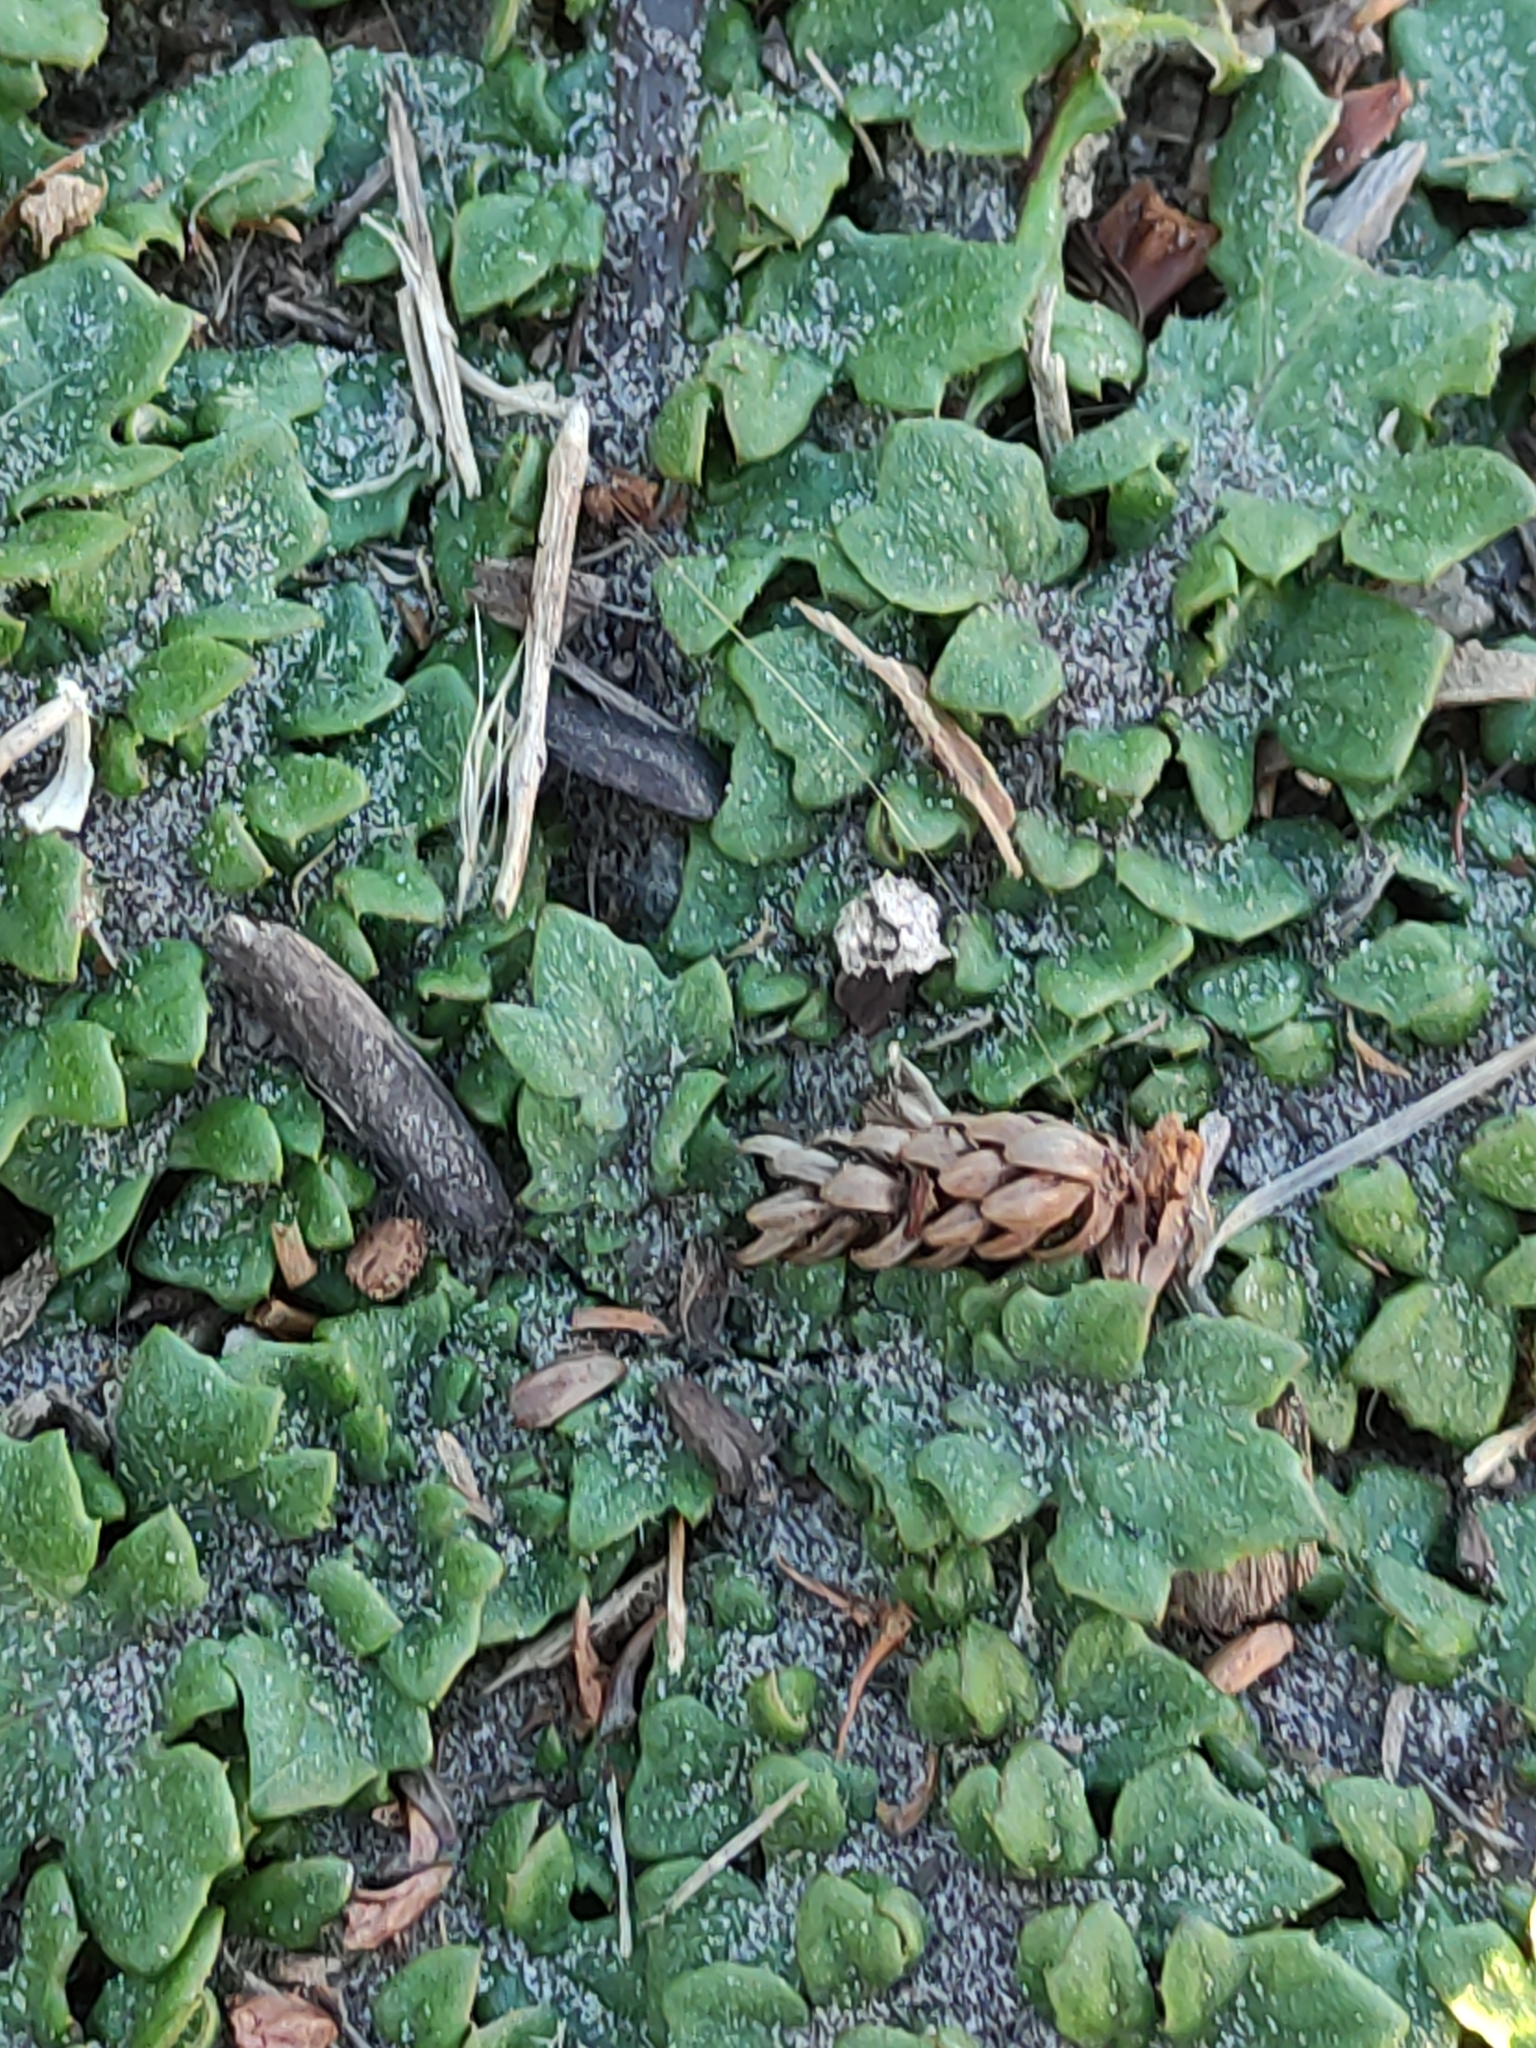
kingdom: Plantae
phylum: Tracheophyta
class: Magnoliopsida
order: Asterales
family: Asteraceae
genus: Arctotheca
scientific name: Arctotheca calendula
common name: Capeweed
